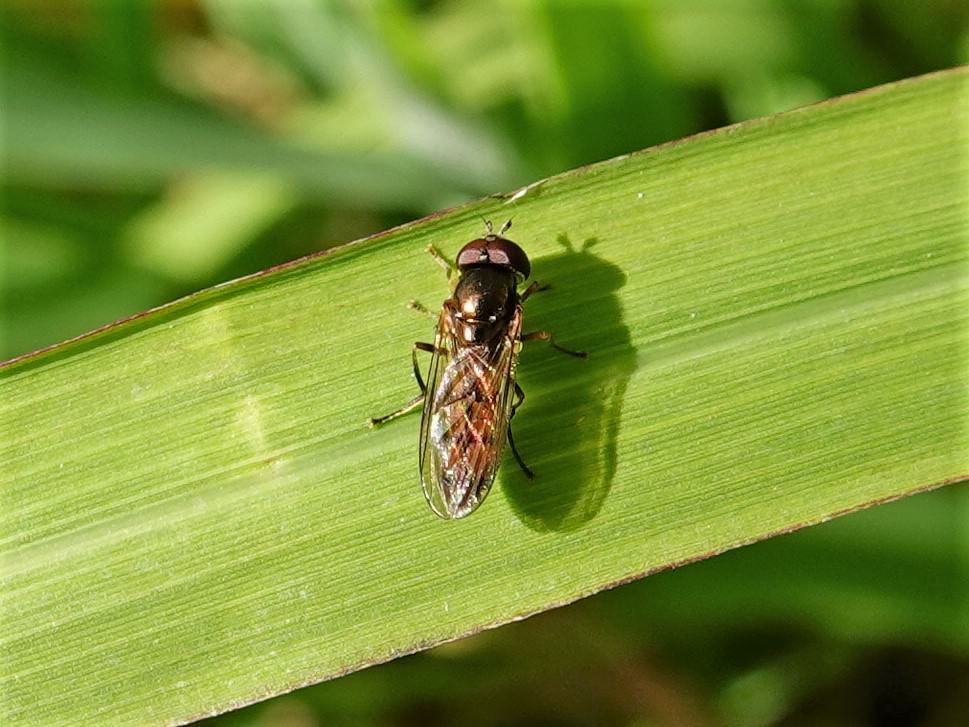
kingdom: Animalia
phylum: Arthropoda
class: Insecta
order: Diptera
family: Syrphidae
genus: Melanostoma
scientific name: Melanostoma fasciatum
